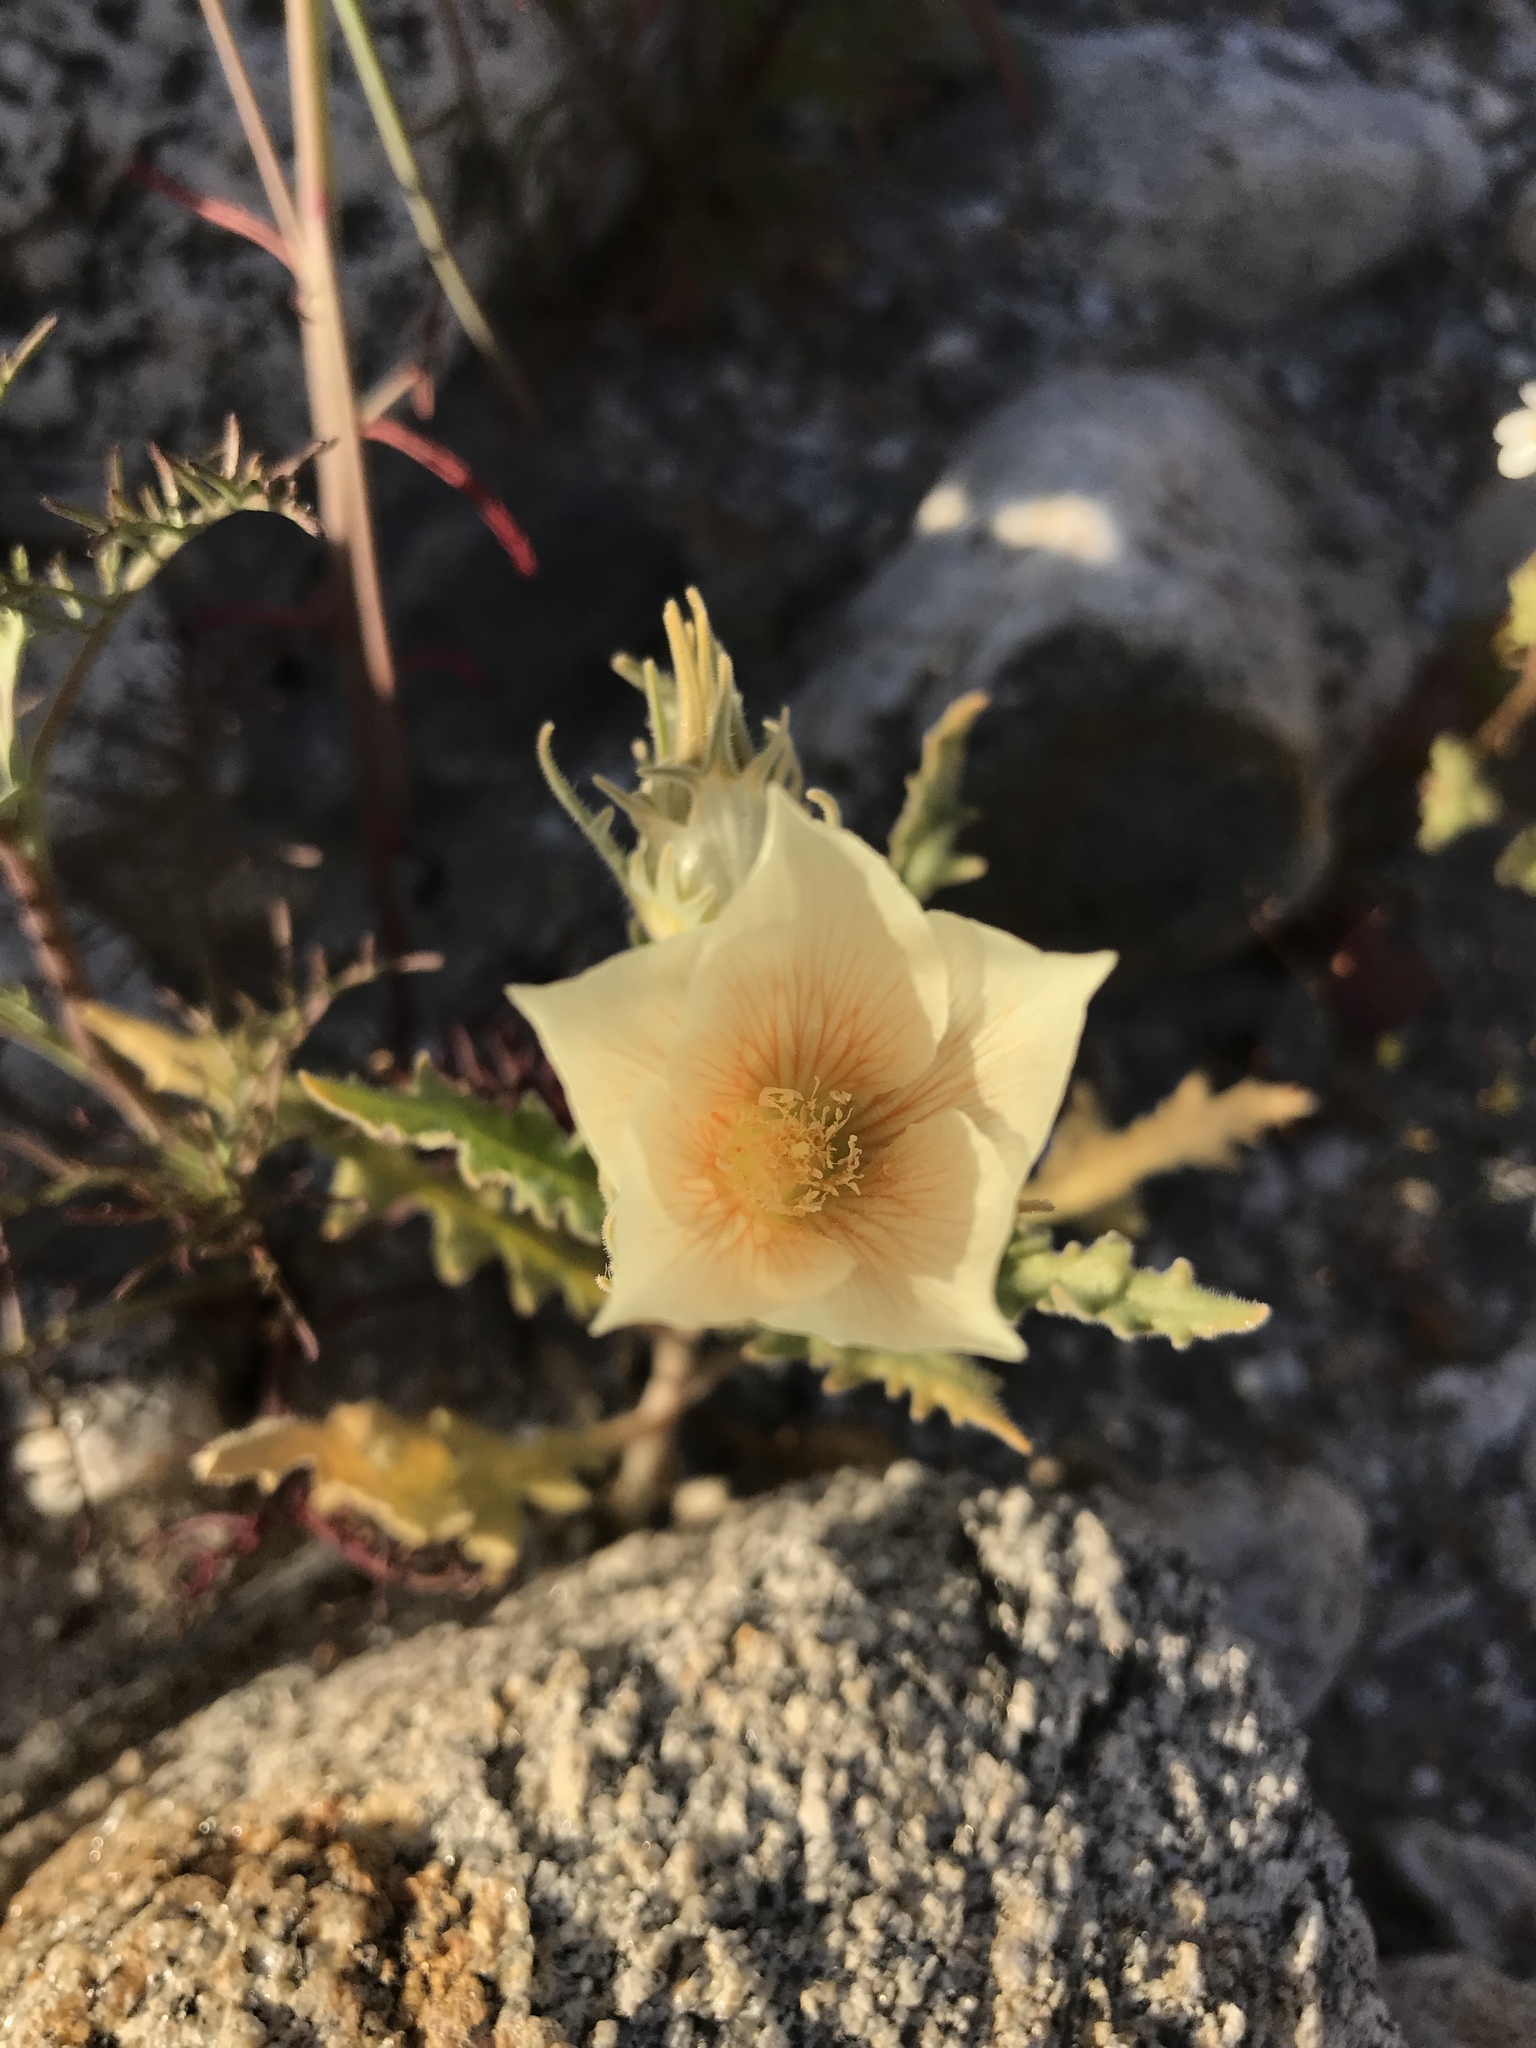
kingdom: Plantae
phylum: Tracheophyta
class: Magnoliopsida
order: Cornales
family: Loasaceae
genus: Mentzelia
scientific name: Mentzelia involucrata
